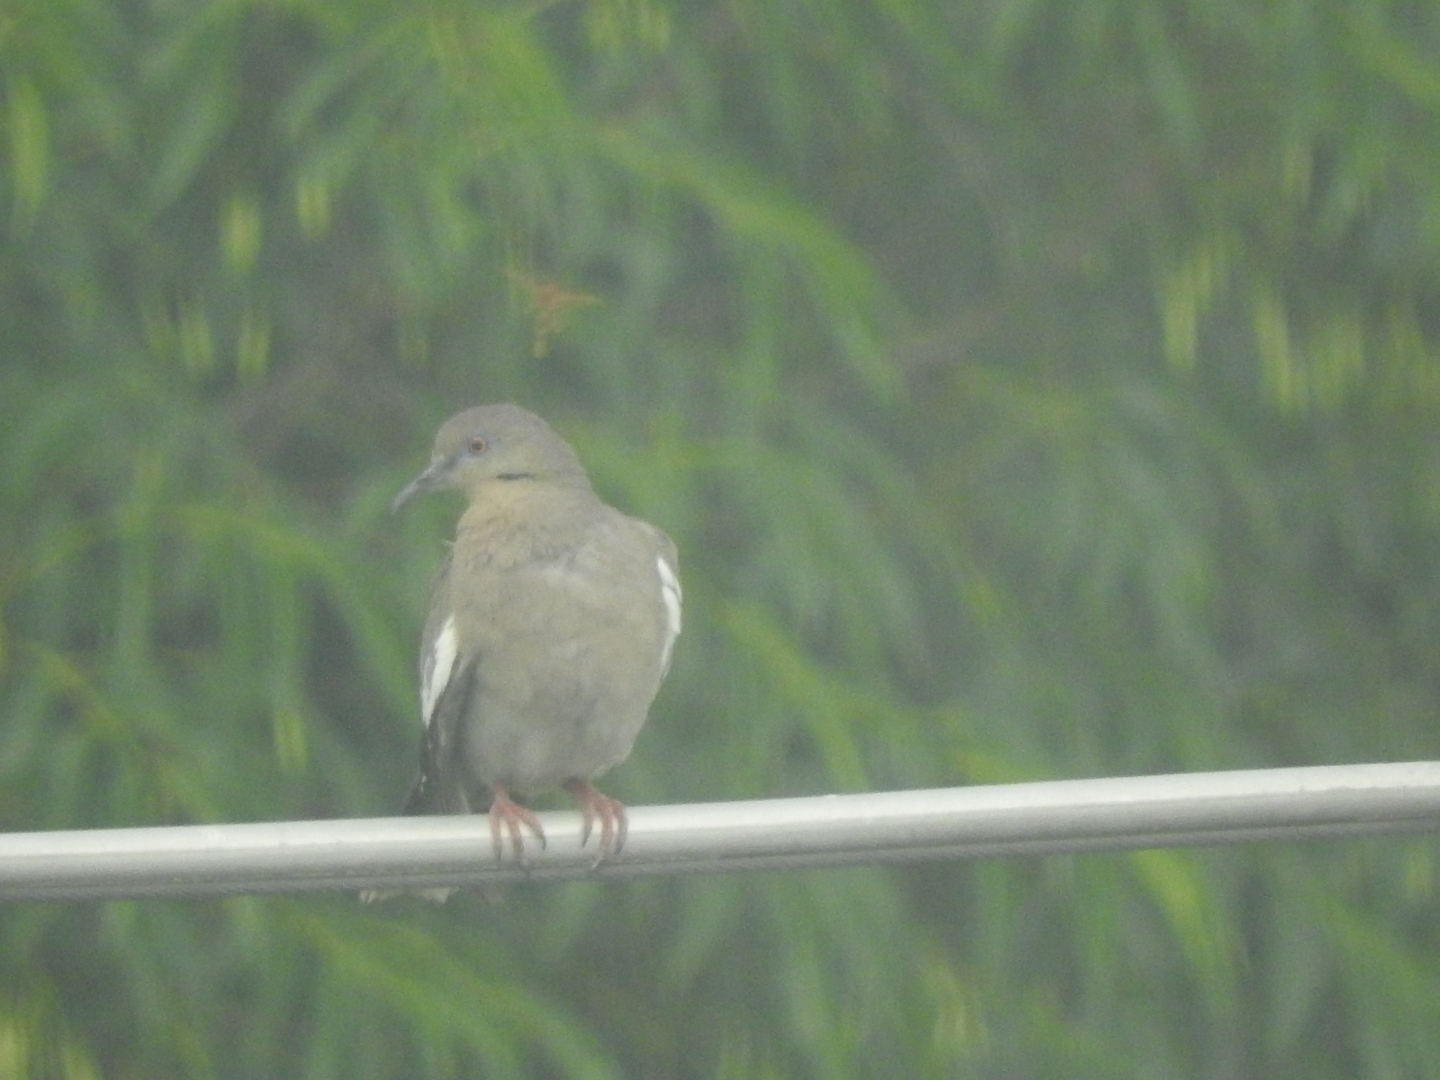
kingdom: Animalia
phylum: Chordata
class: Aves
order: Columbiformes
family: Columbidae
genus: Zenaida
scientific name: Zenaida asiatica
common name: White-winged dove
